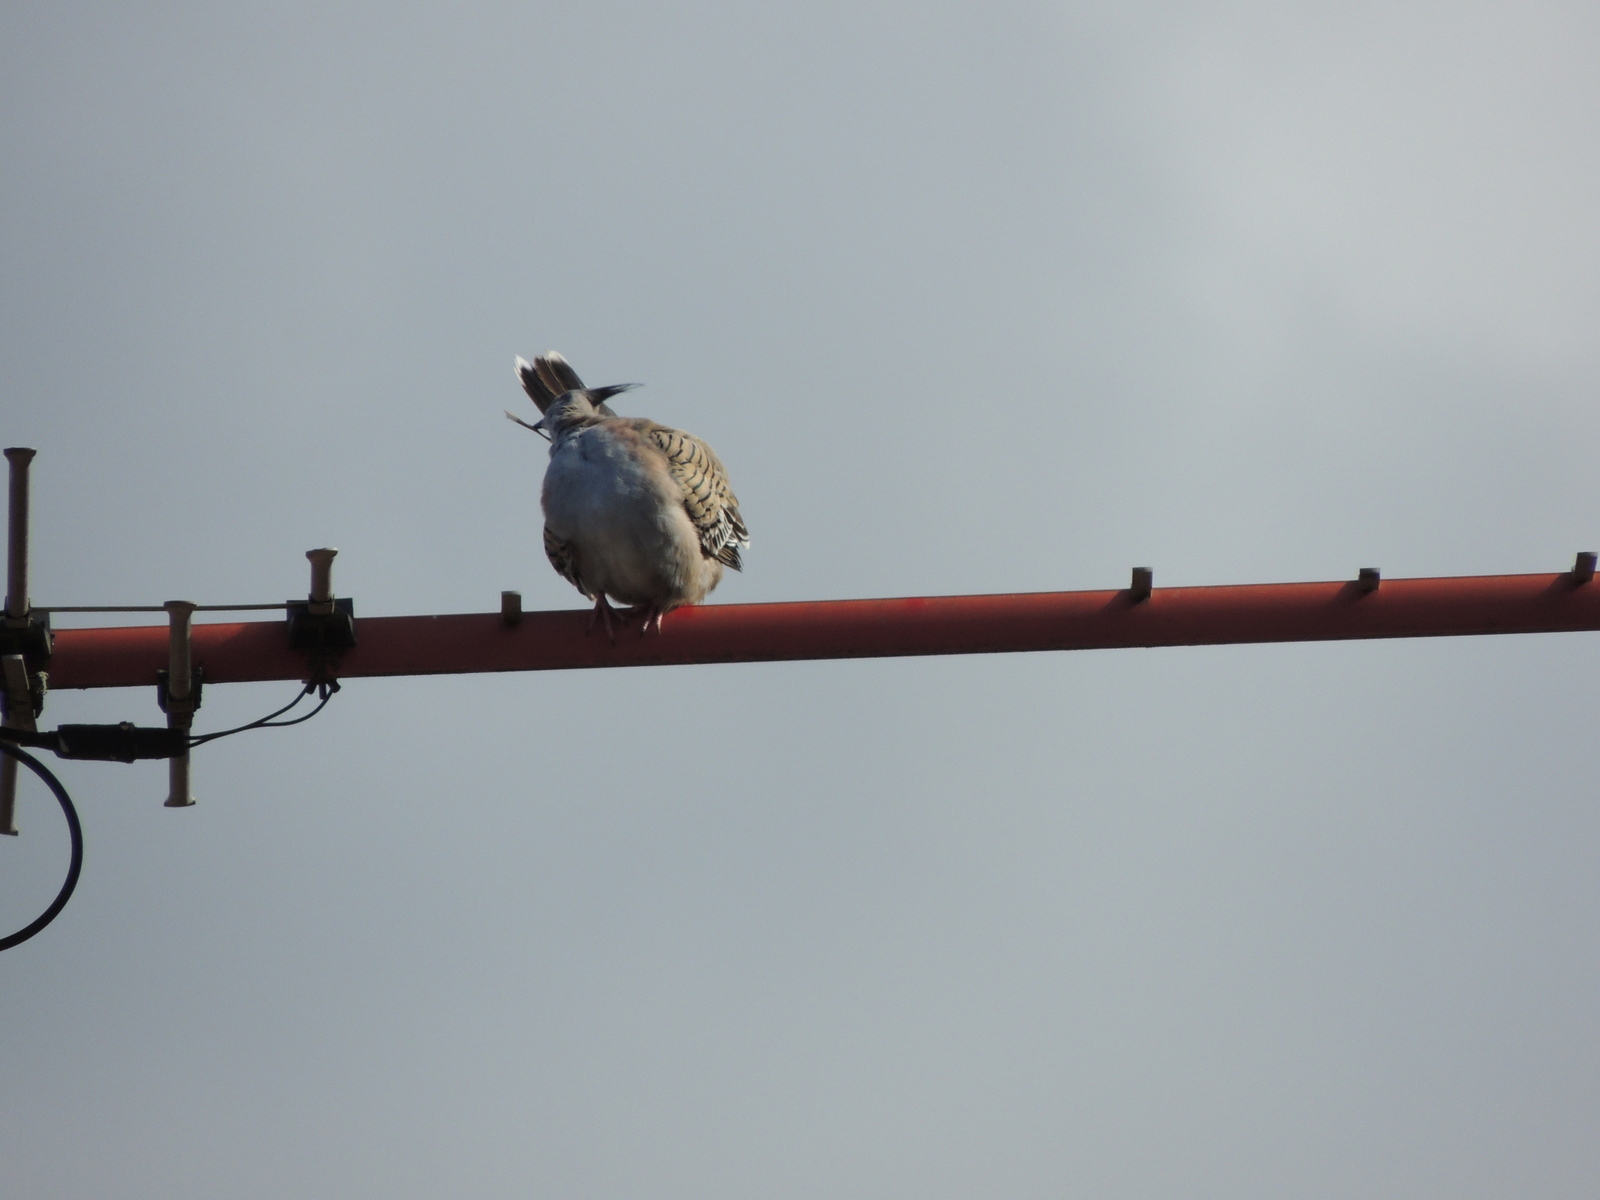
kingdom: Animalia
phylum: Chordata
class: Aves
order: Columbiformes
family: Columbidae
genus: Ocyphaps
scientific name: Ocyphaps lophotes
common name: Crested pigeon
